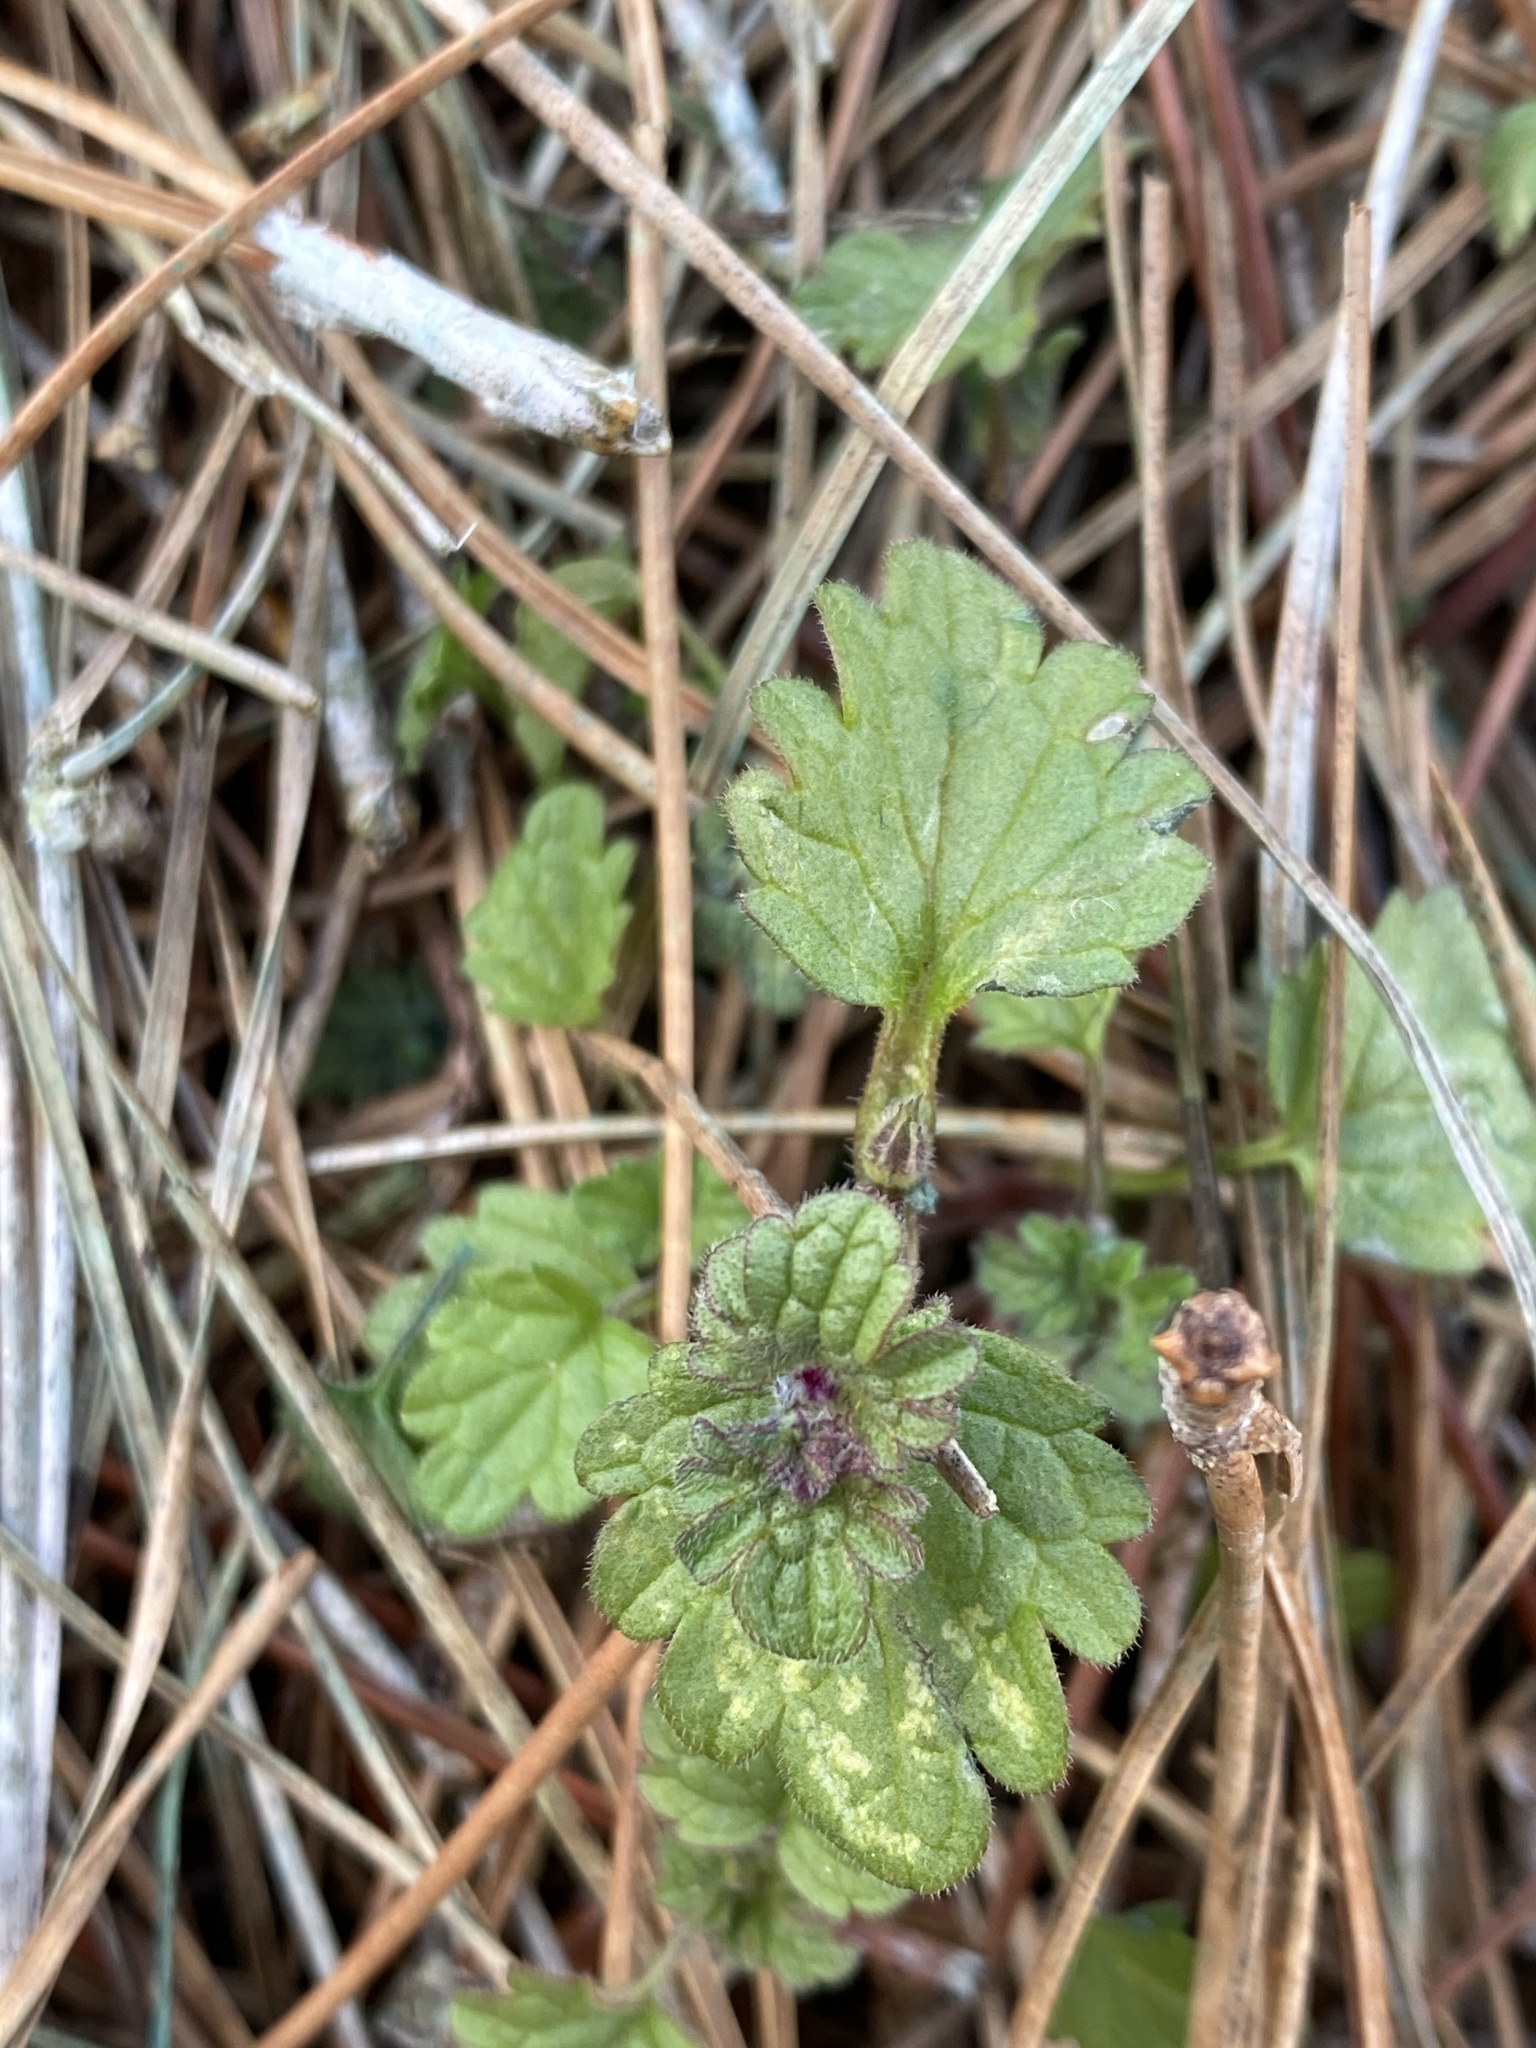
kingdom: Plantae
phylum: Tracheophyta
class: Magnoliopsida
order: Lamiales
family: Lamiaceae
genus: Lamium
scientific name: Lamium amplexicaule
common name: Henbit dead-nettle
